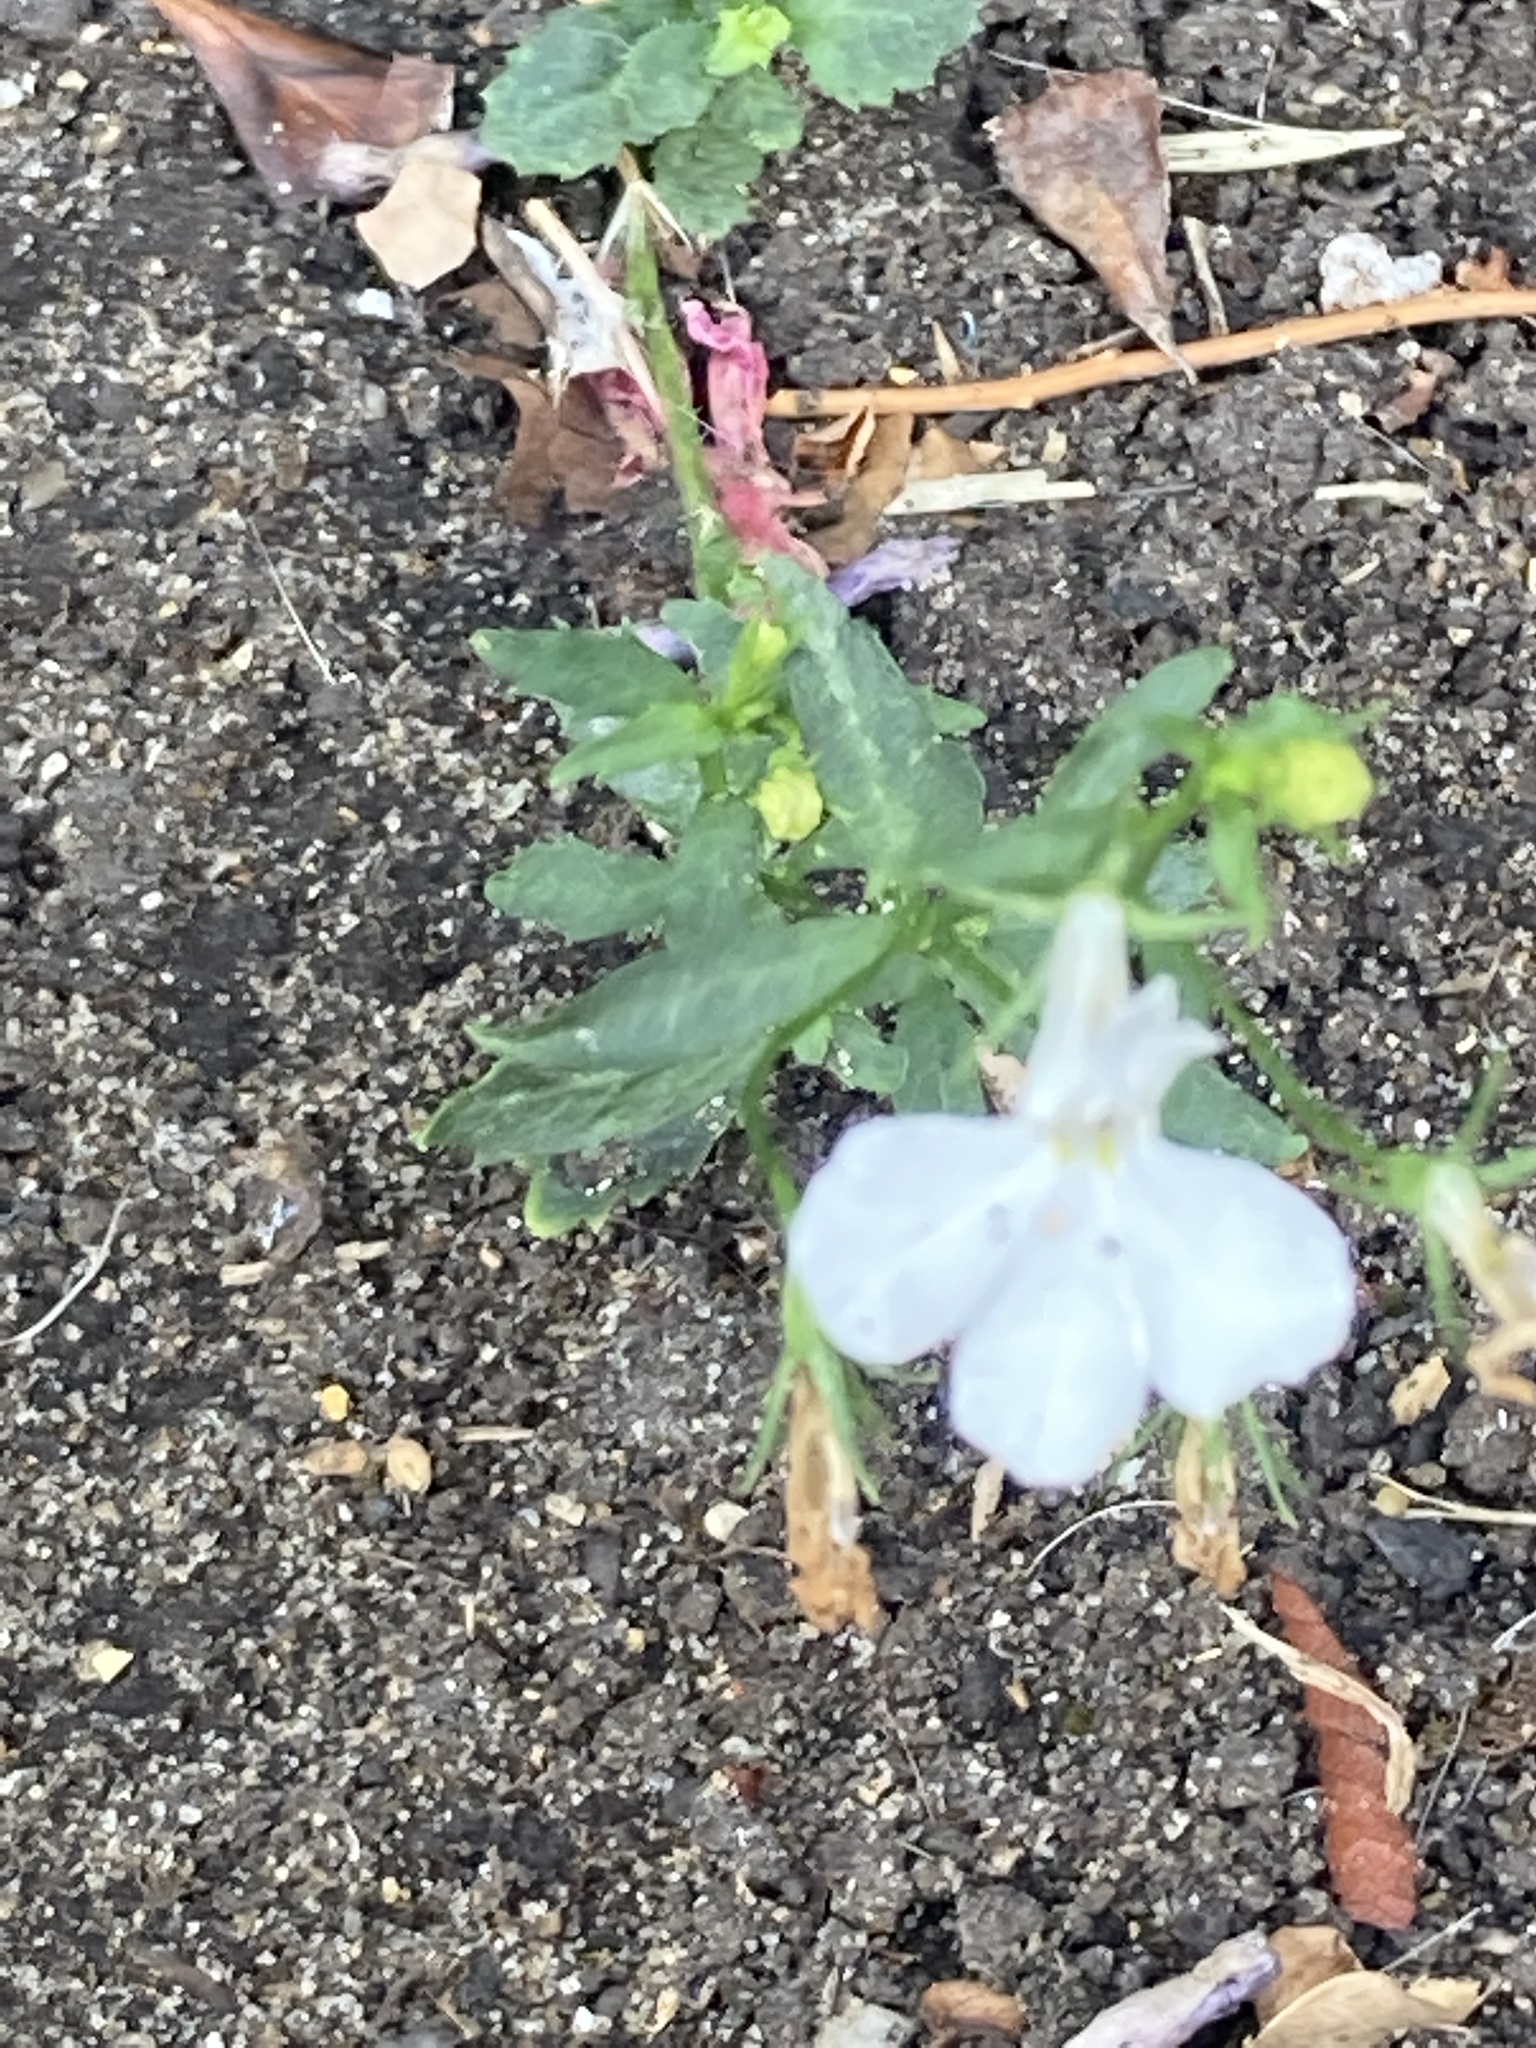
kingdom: Plantae
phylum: Tracheophyta
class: Magnoliopsida
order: Asterales
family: Campanulaceae
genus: Lobelia
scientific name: Lobelia erinus
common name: Edging lobelia
